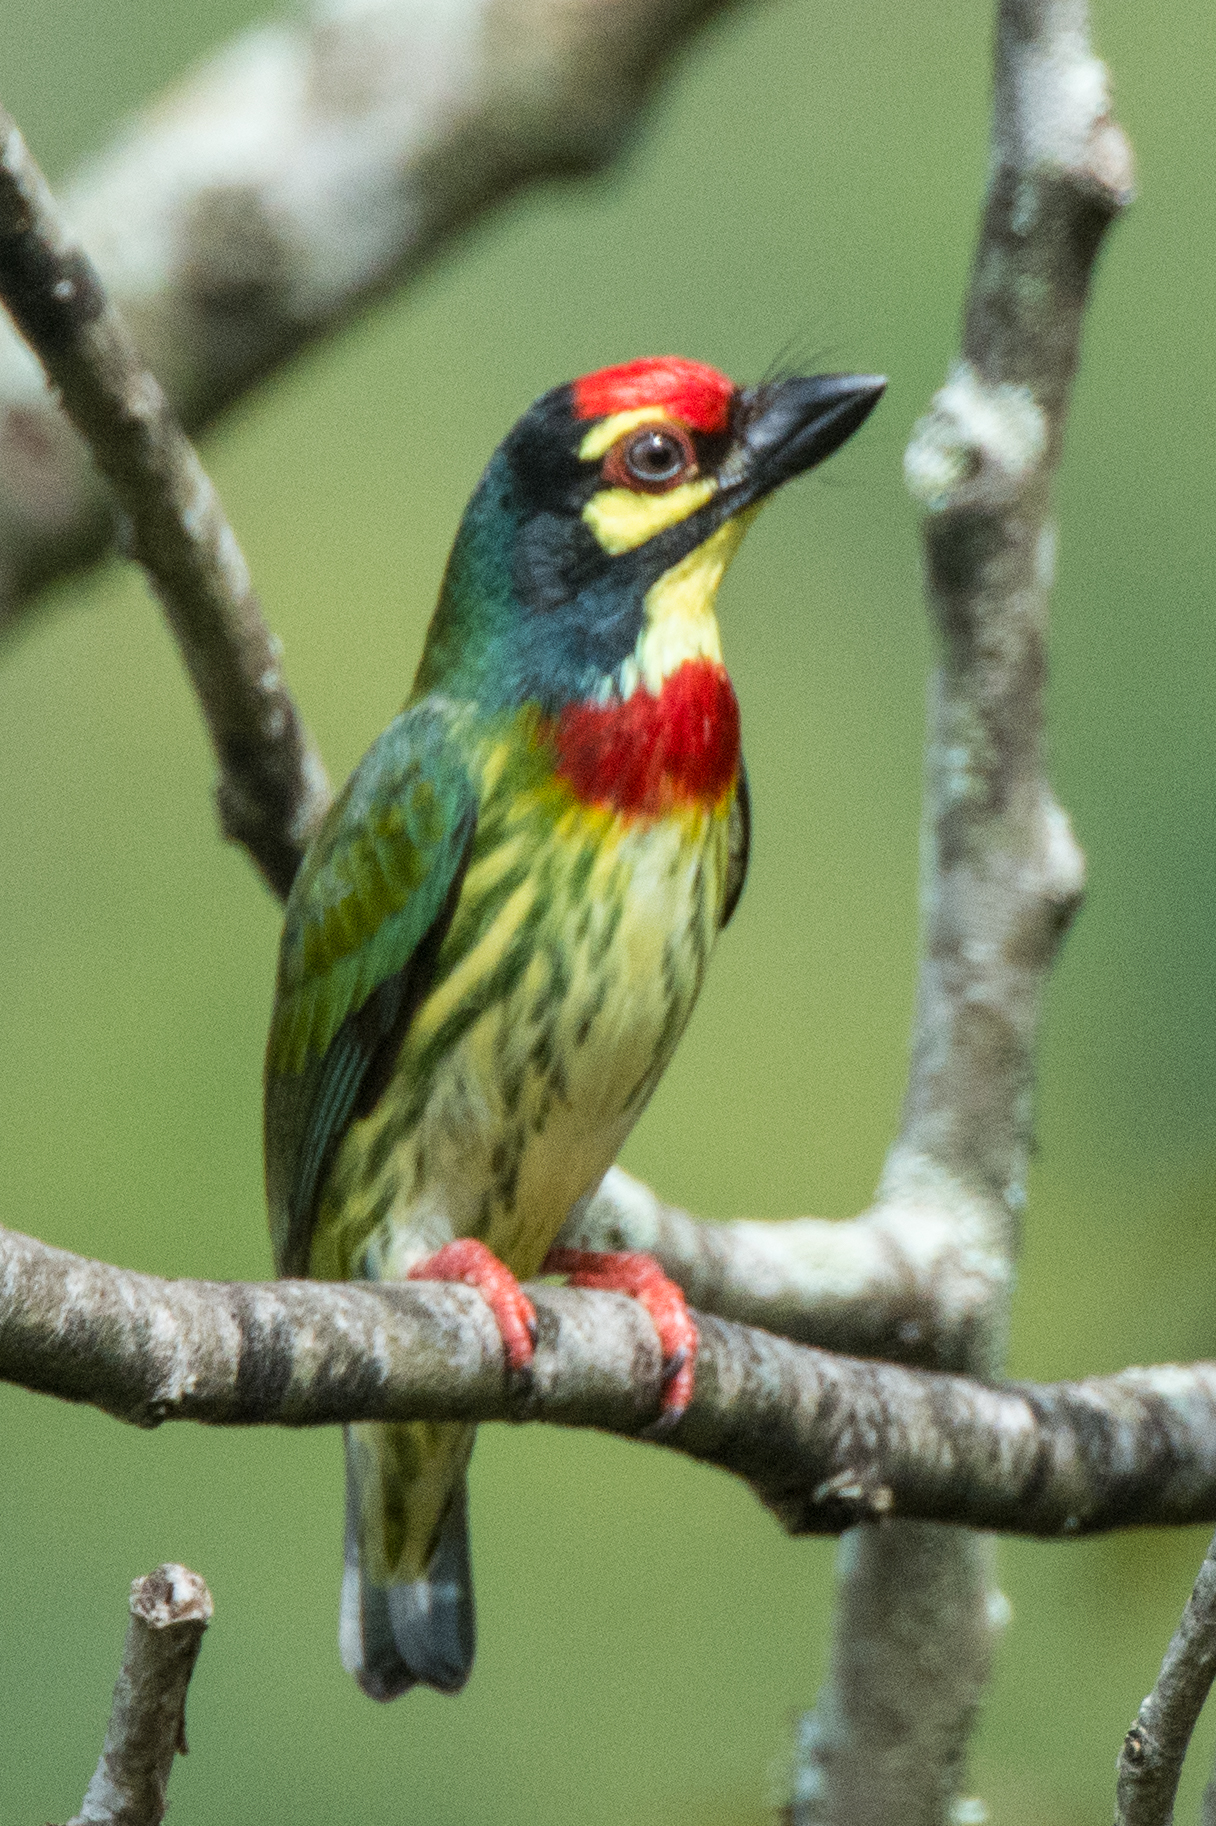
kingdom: Animalia
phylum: Chordata
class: Aves
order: Piciformes
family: Megalaimidae
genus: Psilopogon
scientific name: Psilopogon haemacephalus
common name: Coppersmith barbet
